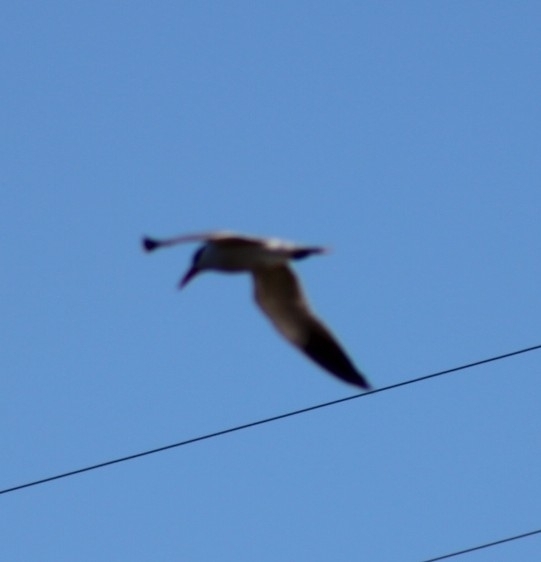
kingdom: Animalia
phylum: Chordata
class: Aves
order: Charadriiformes
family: Laridae
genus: Hydroprogne
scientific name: Hydroprogne caspia
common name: Caspian tern
